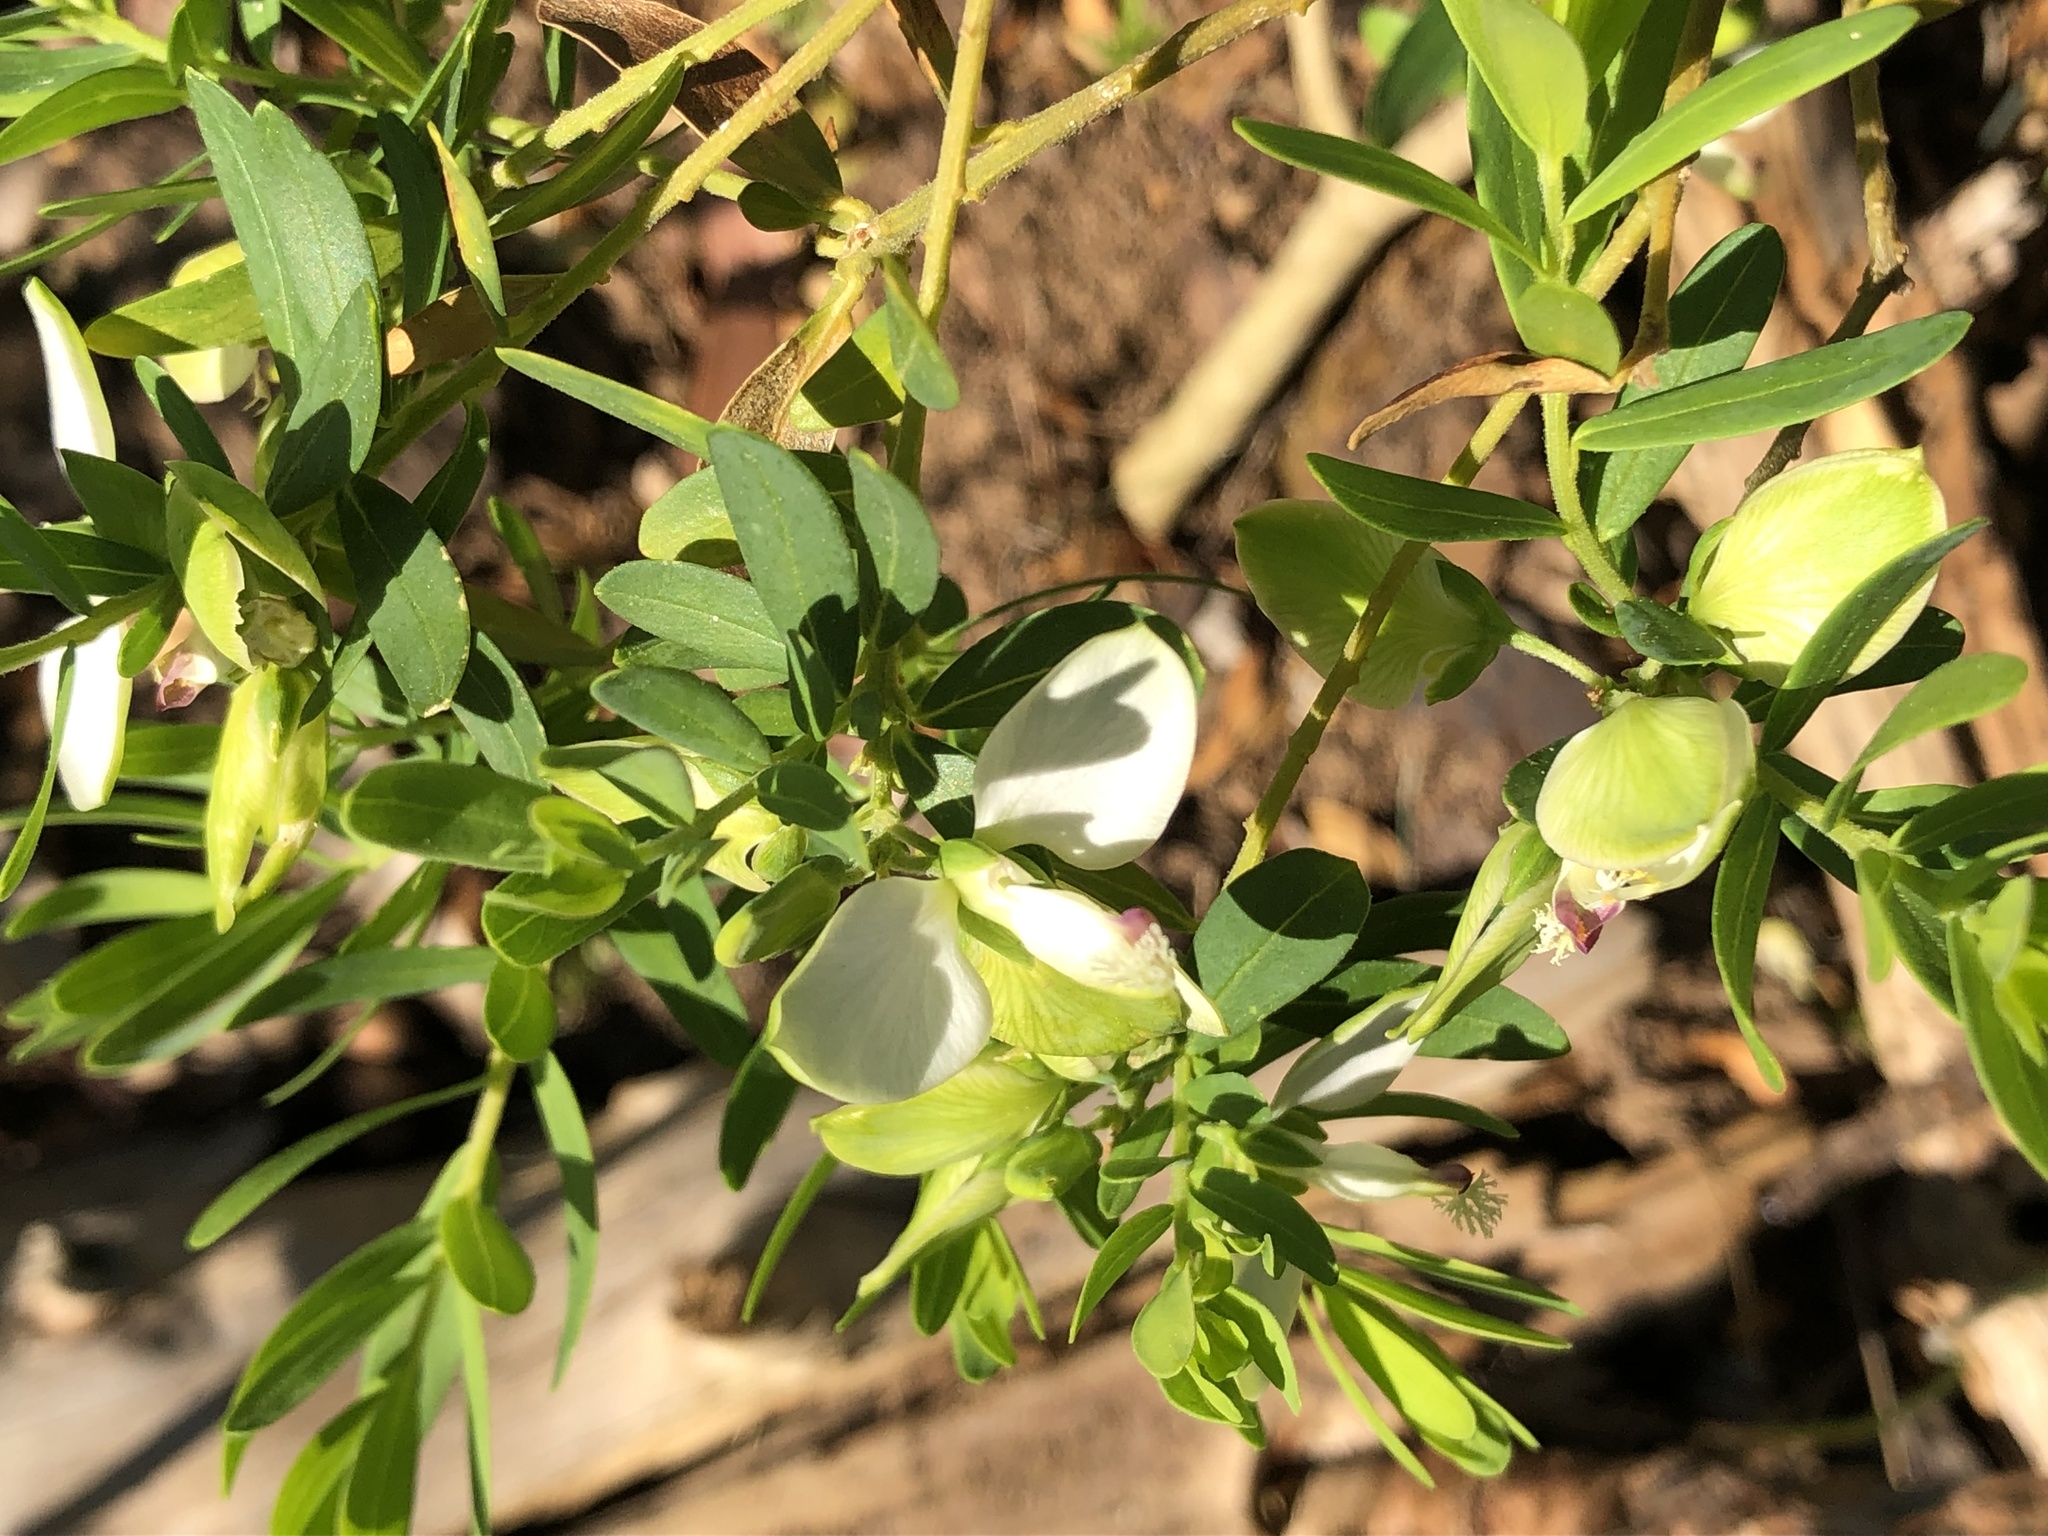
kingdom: Plantae
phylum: Tracheophyta
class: Magnoliopsida
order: Fabales
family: Polygalaceae
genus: Polygala
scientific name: Polygala myrtifolia
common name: Myrtle-leaf milkwort
